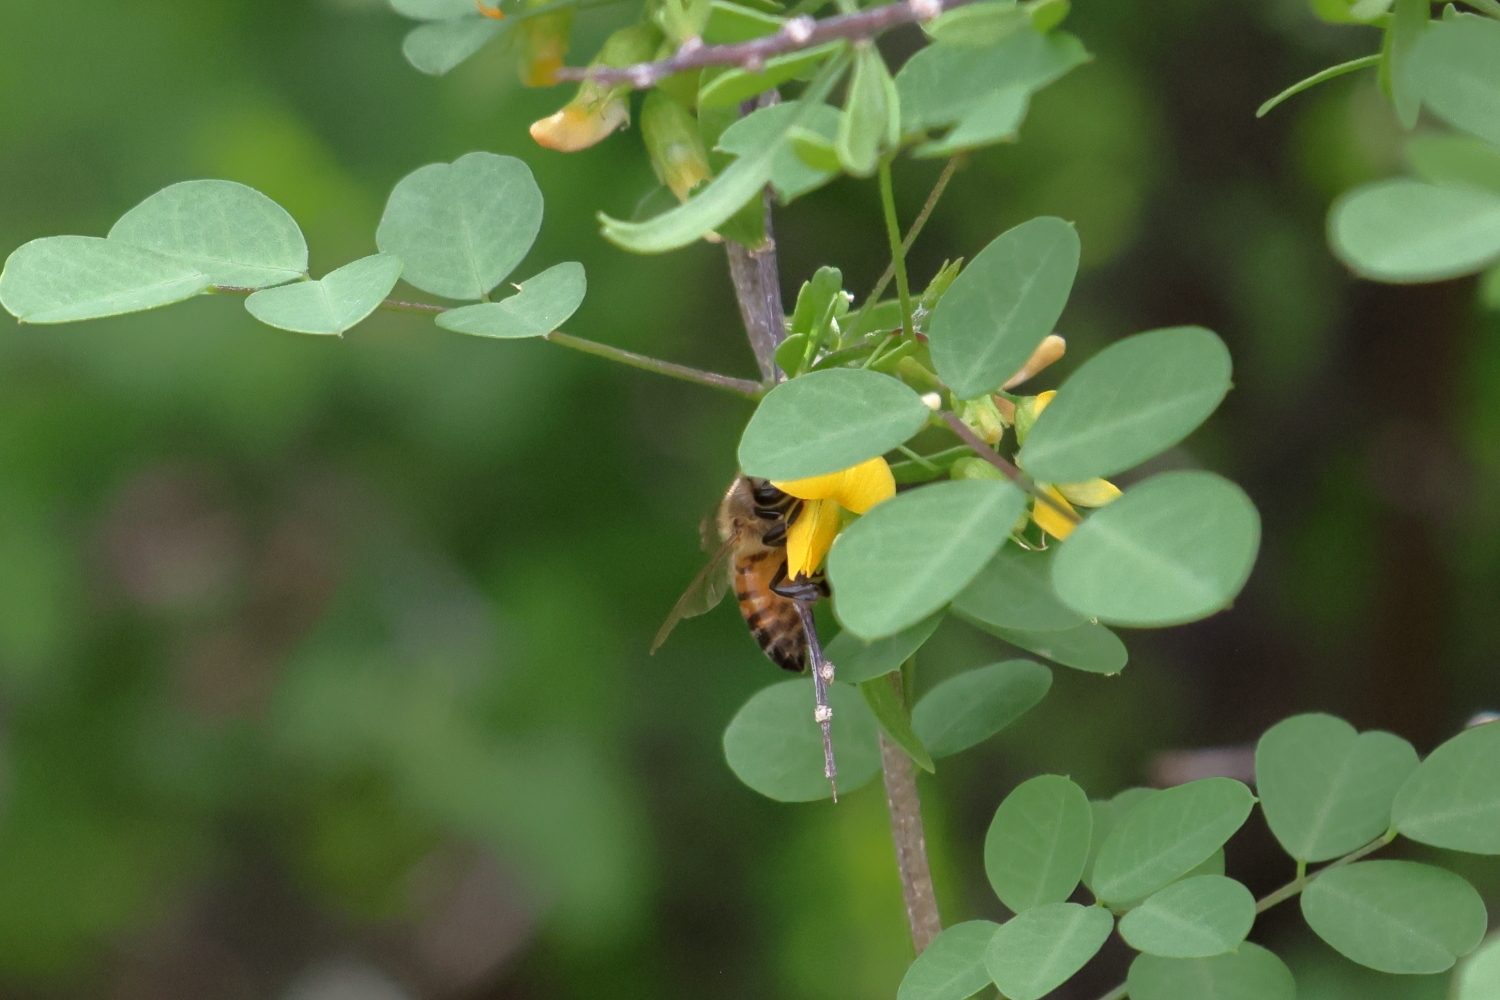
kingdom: Animalia
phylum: Arthropoda
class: Insecta
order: Hymenoptera
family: Apidae
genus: Apis
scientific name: Apis mellifera
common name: Honey bee
